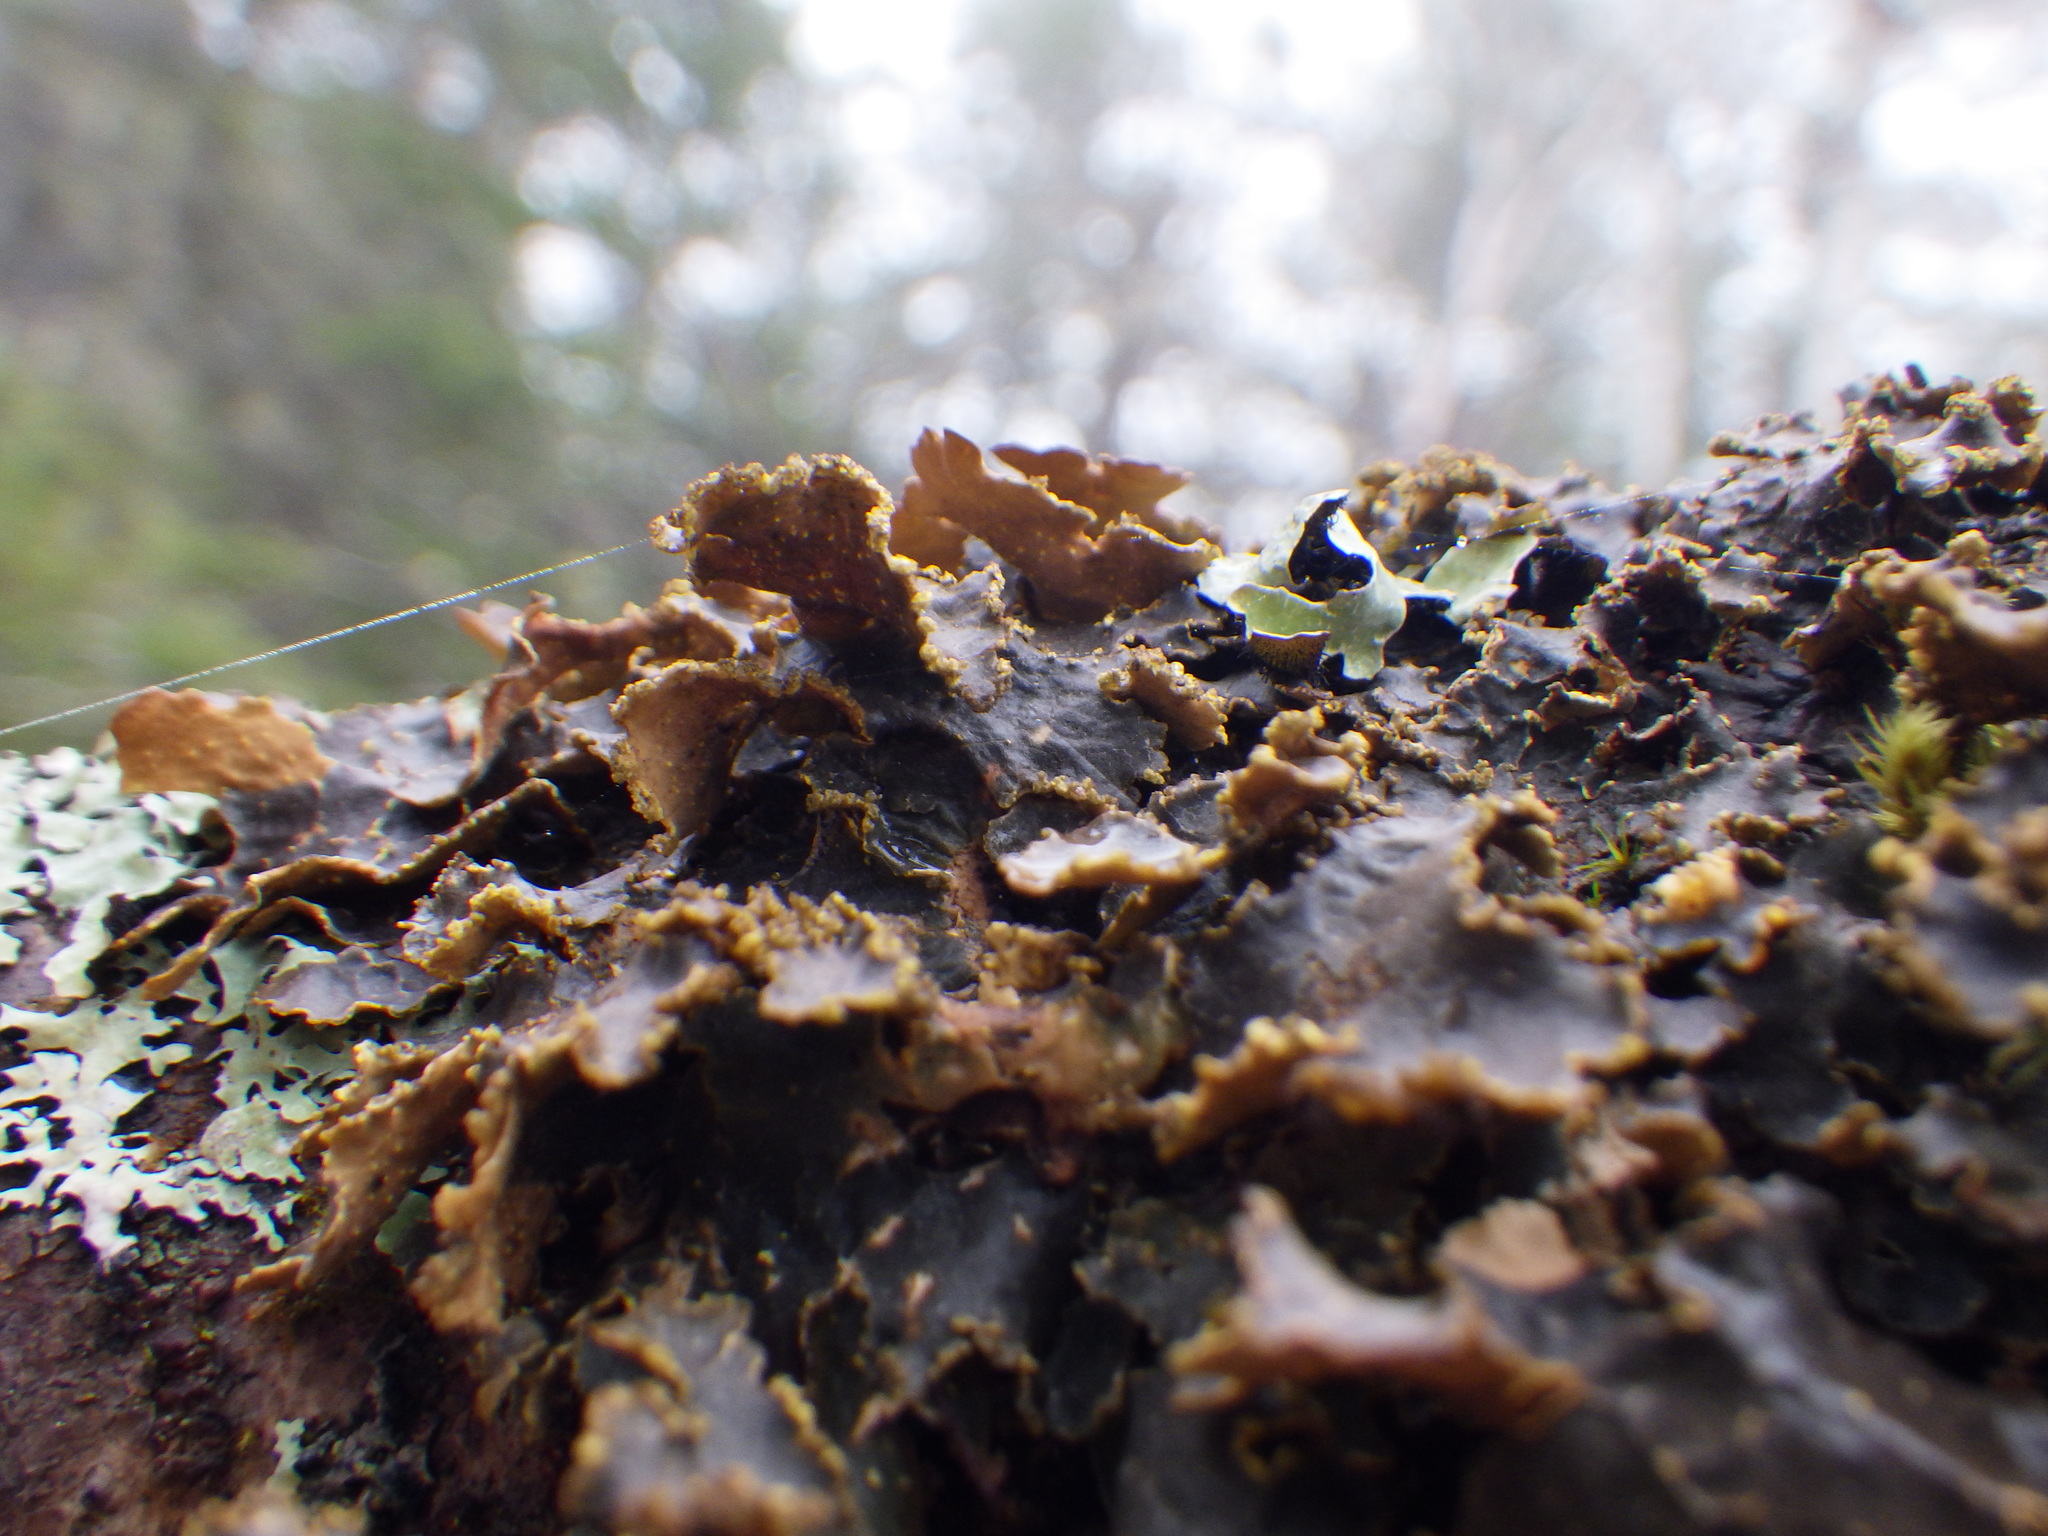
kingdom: Fungi
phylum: Ascomycota
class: Lecanoromycetes
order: Peltigerales
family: Lobariaceae
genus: Pseudocyphellaria
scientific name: Pseudocyphellaria holarctica
